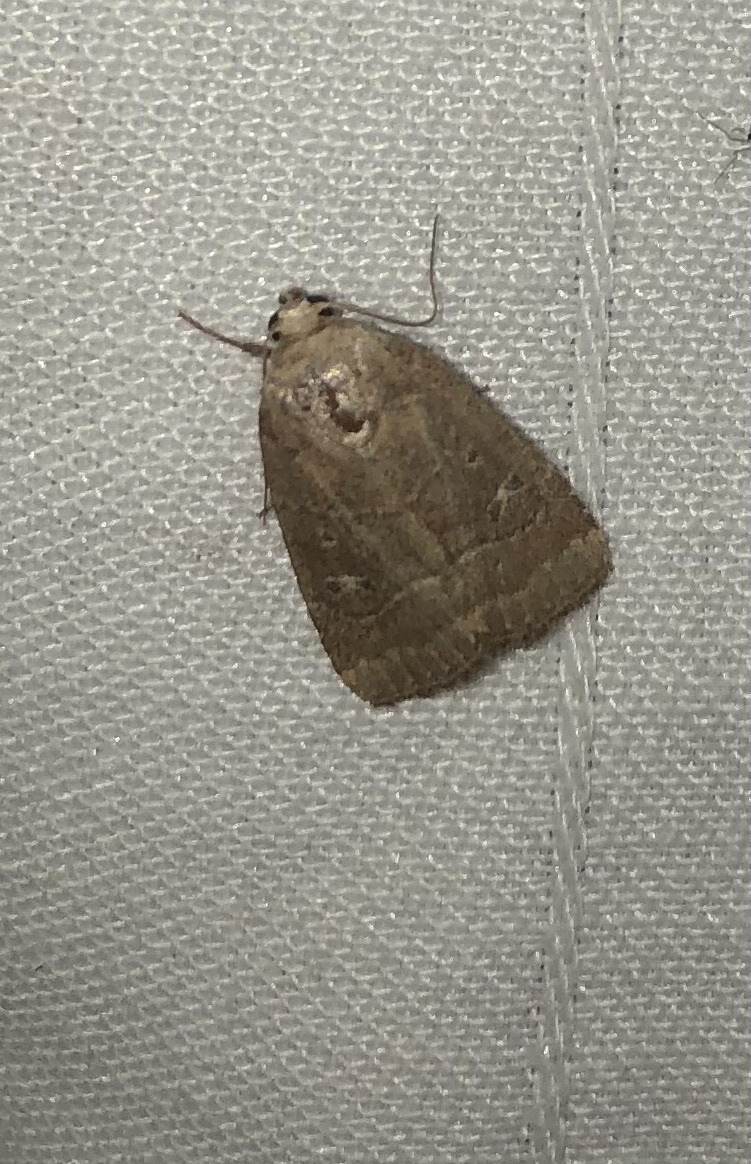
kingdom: Animalia
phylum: Arthropoda
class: Insecta
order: Lepidoptera
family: Noctuidae
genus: Elaphria
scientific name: Elaphria grata
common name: Grateful midget moth
